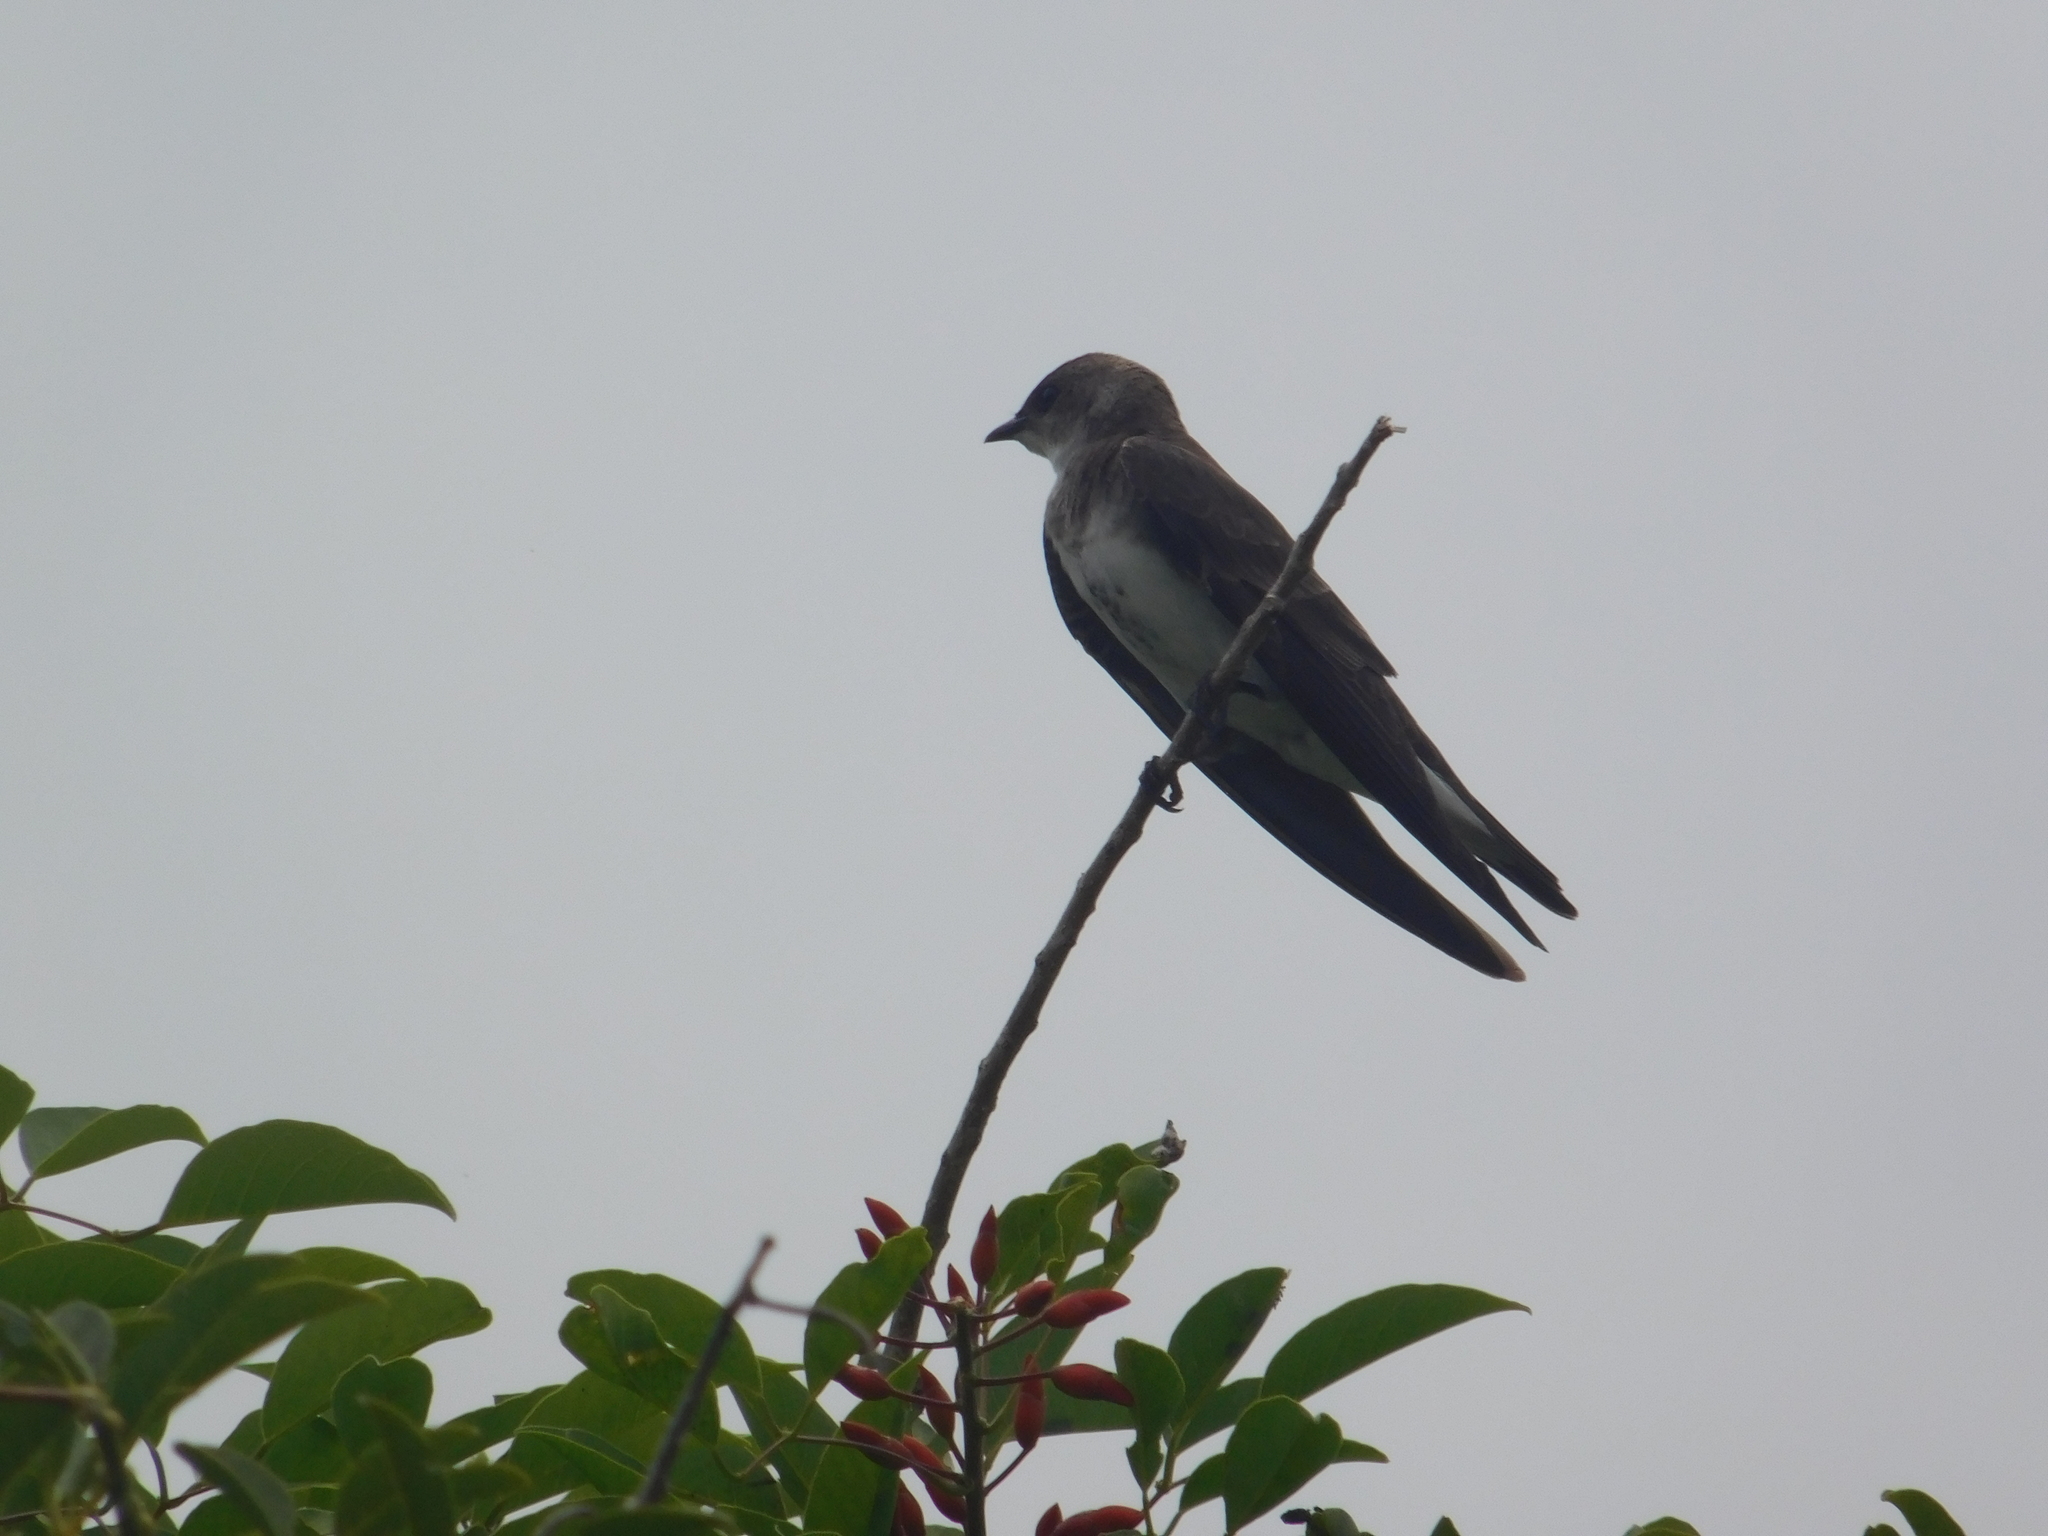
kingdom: Animalia
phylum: Chordata
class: Aves
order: Passeriformes
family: Hirundinidae
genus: Progne
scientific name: Progne tapera
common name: Brown-chested martin
